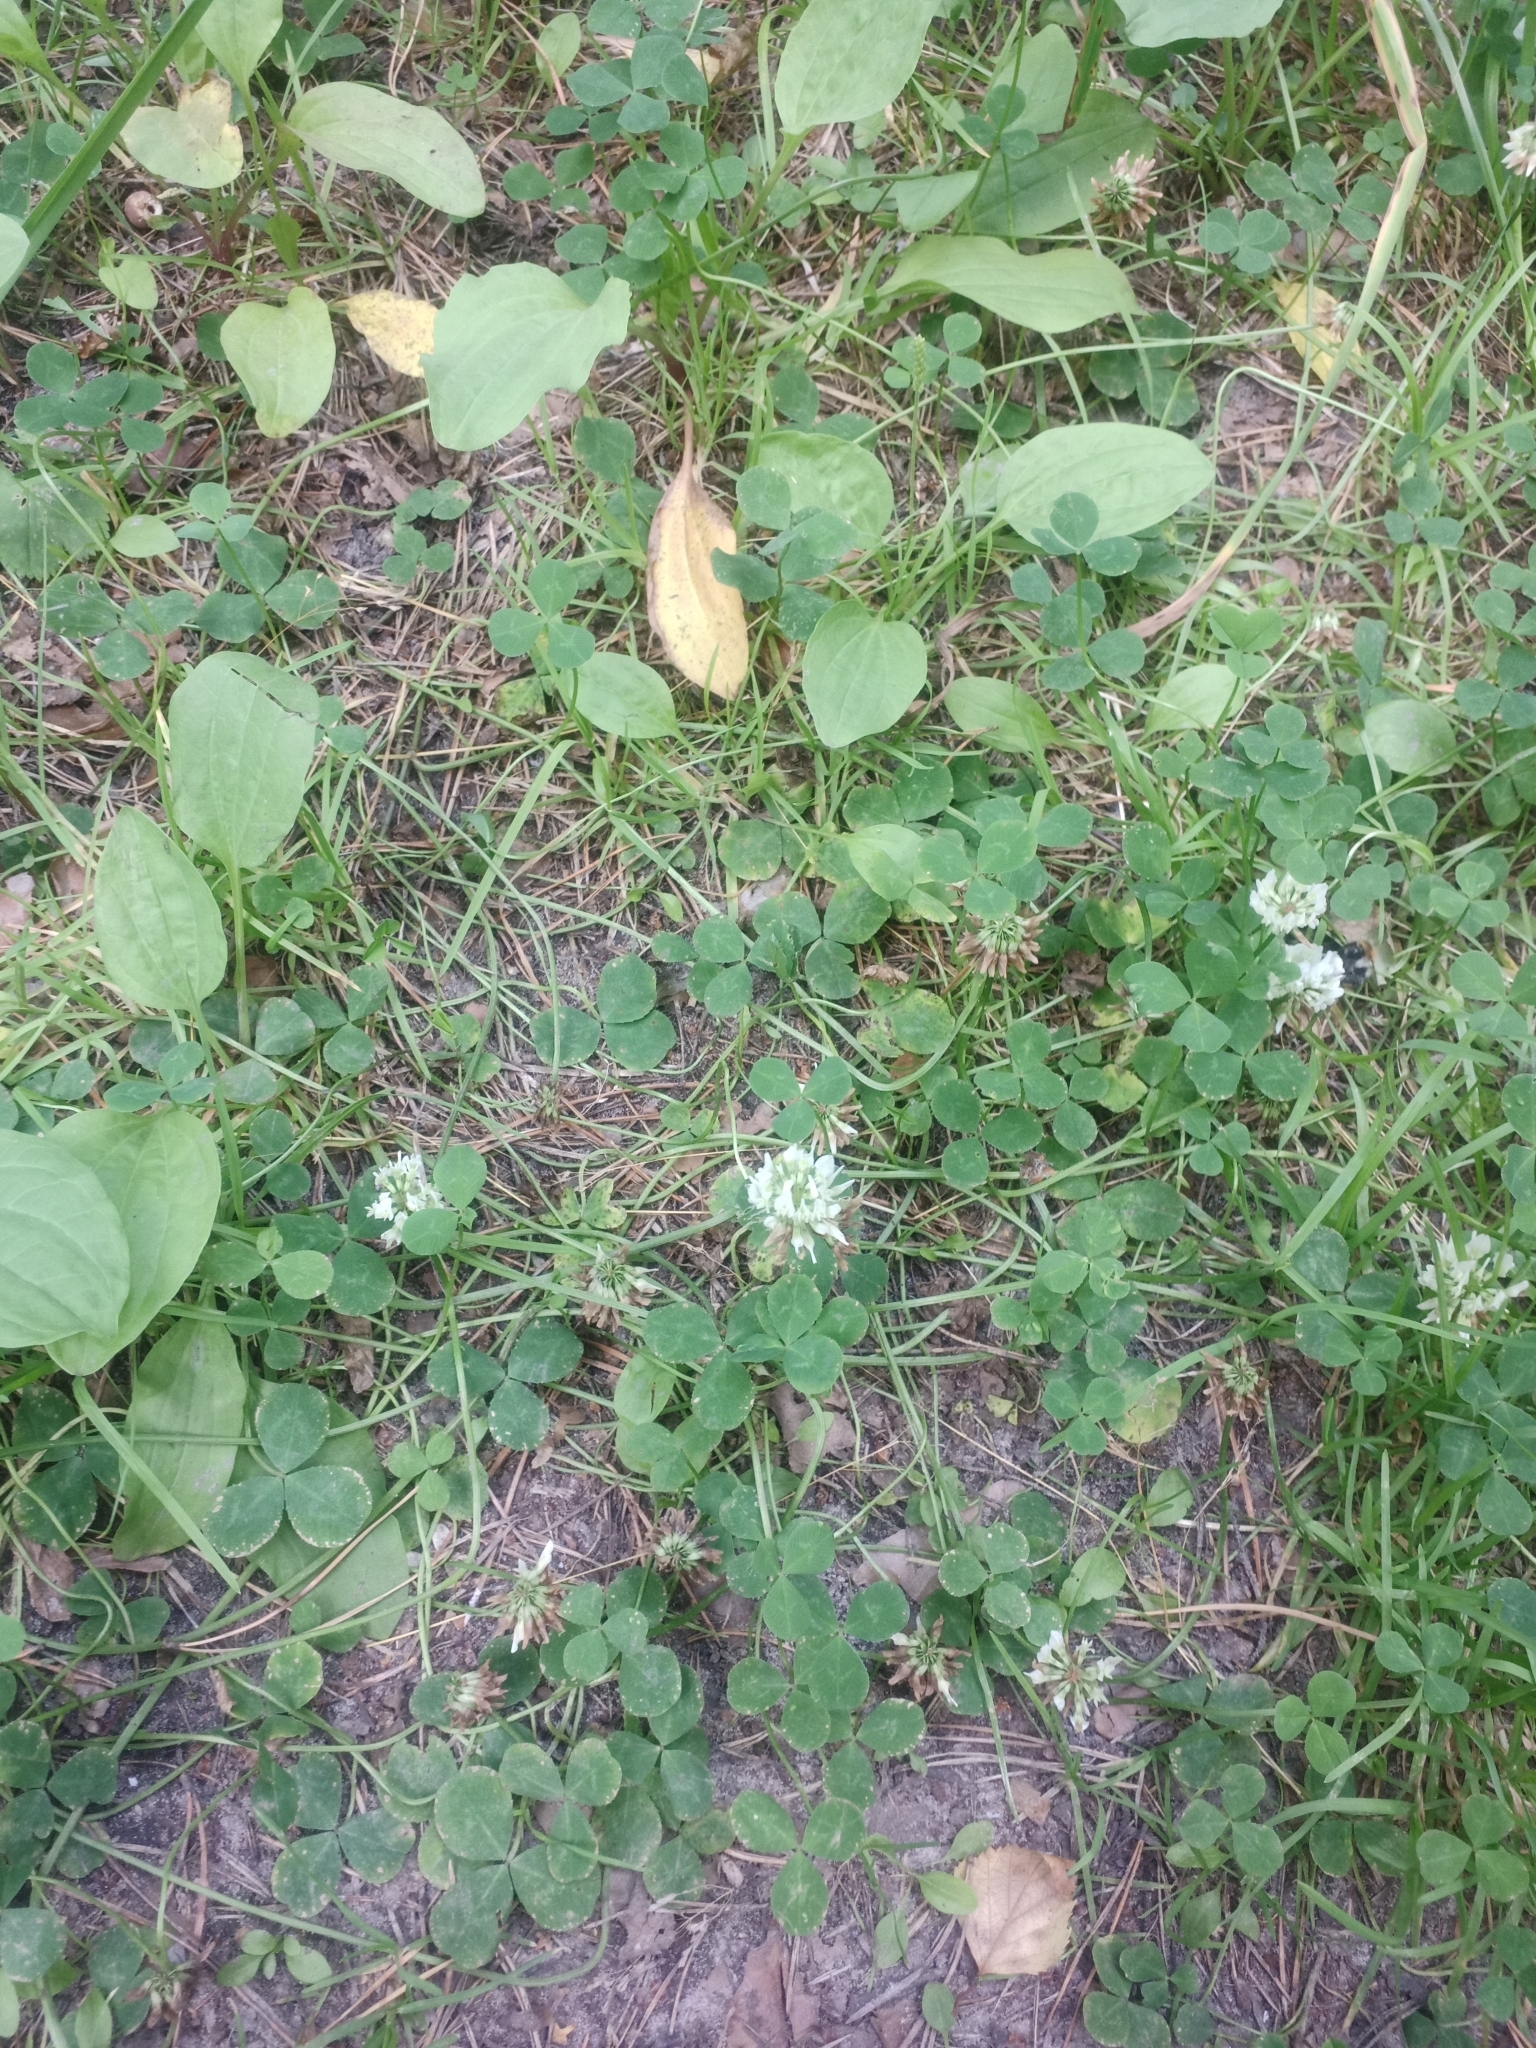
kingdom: Plantae
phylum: Tracheophyta
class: Magnoliopsida
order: Fabales
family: Fabaceae
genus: Trifolium
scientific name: Trifolium repens
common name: White clover
